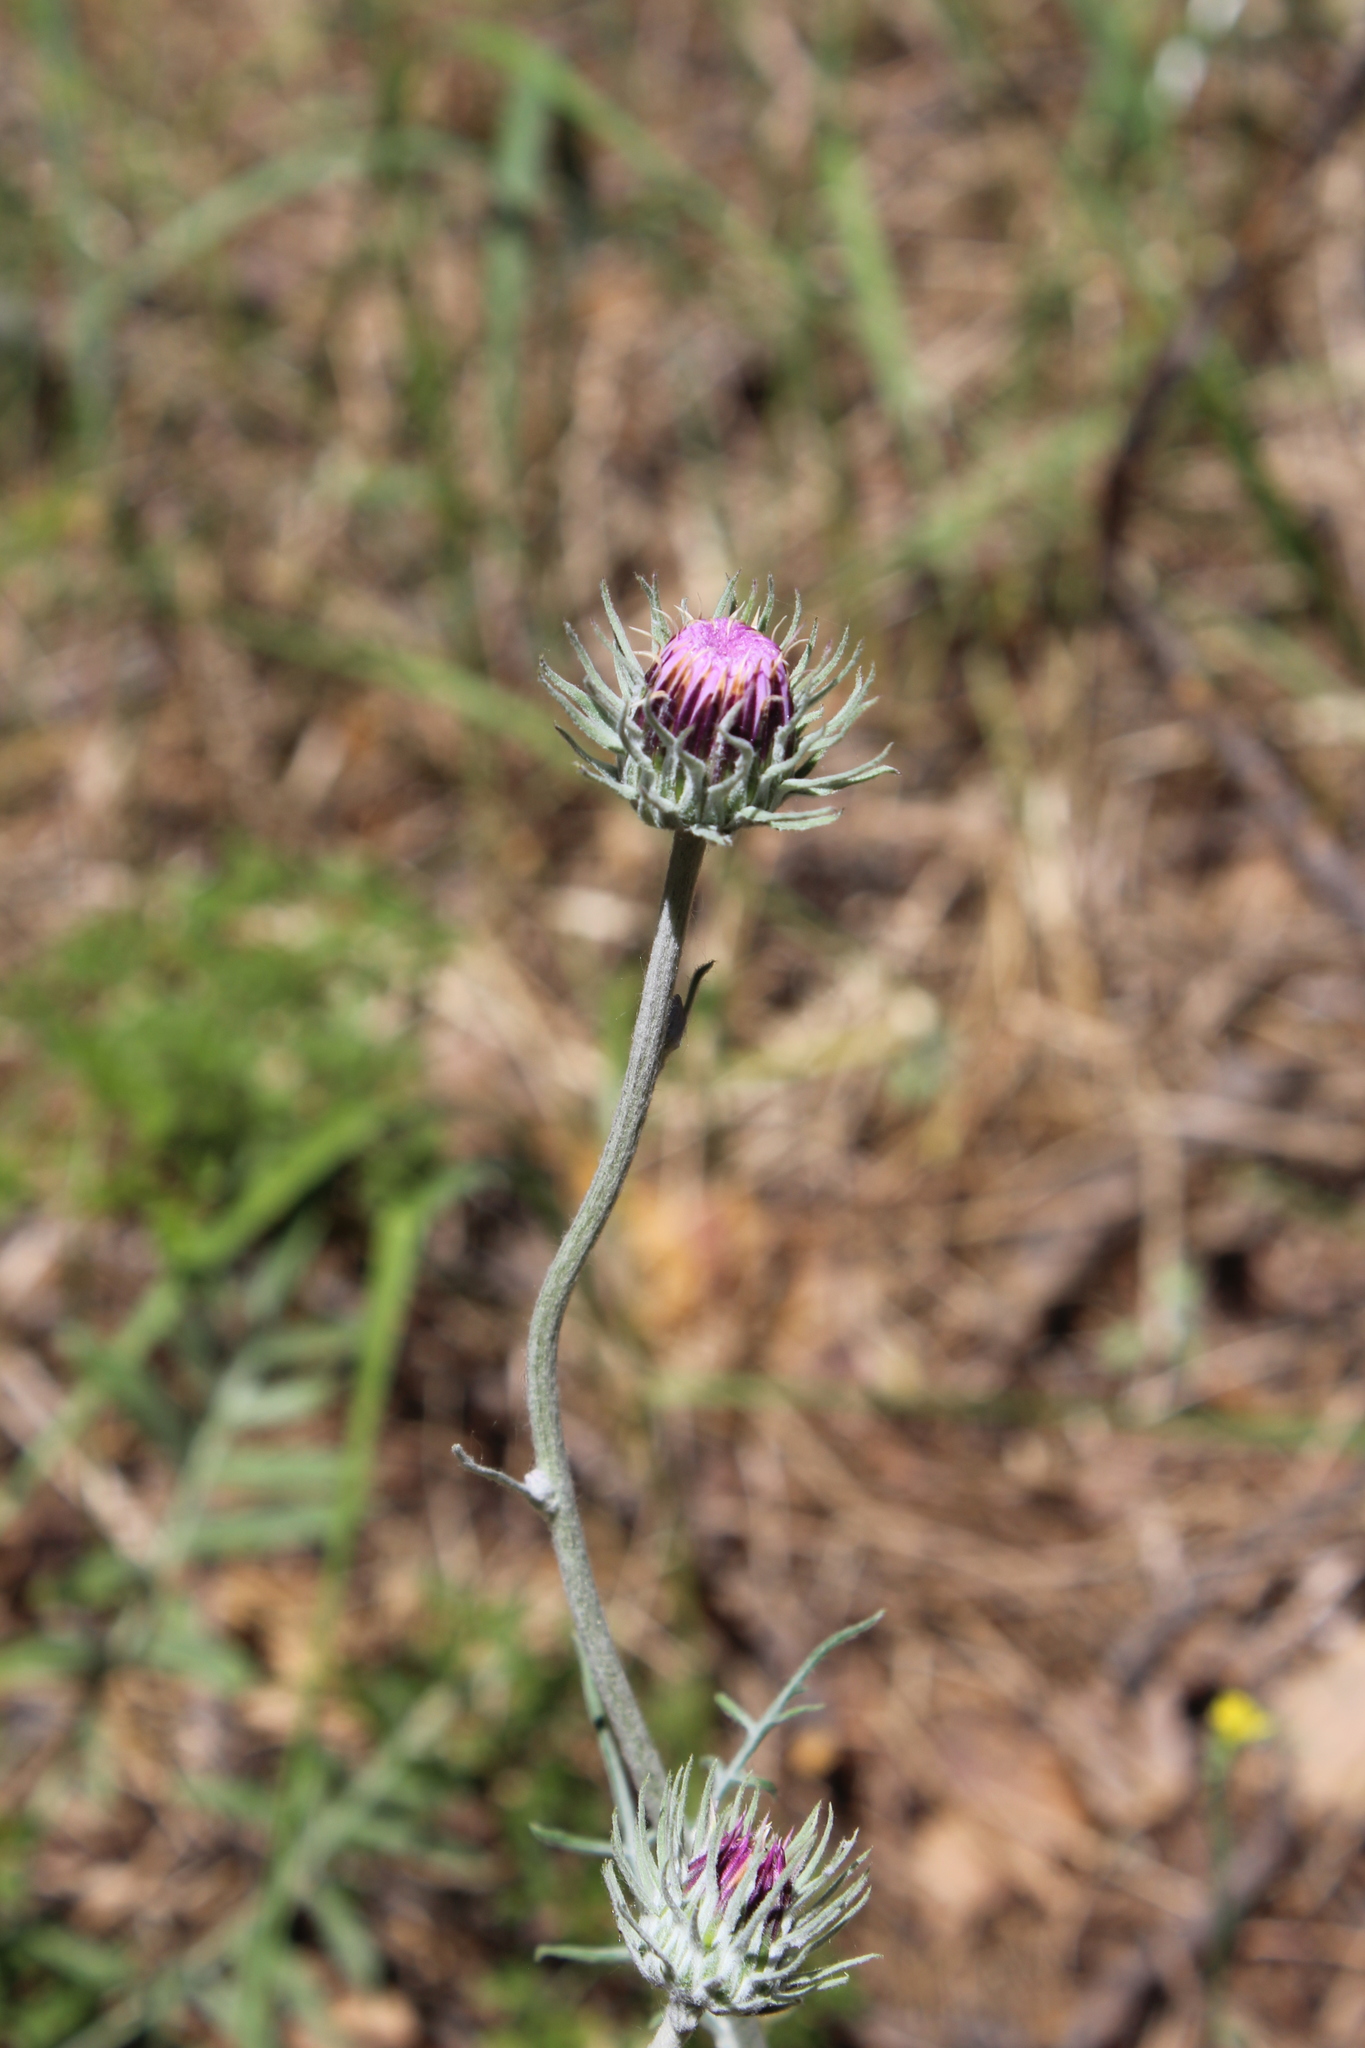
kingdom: Plantae
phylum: Tracheophyta
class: Magnoliopsida
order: Asterales
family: Asteraceae
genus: Jurinea
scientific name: Jurinea cyanoides
